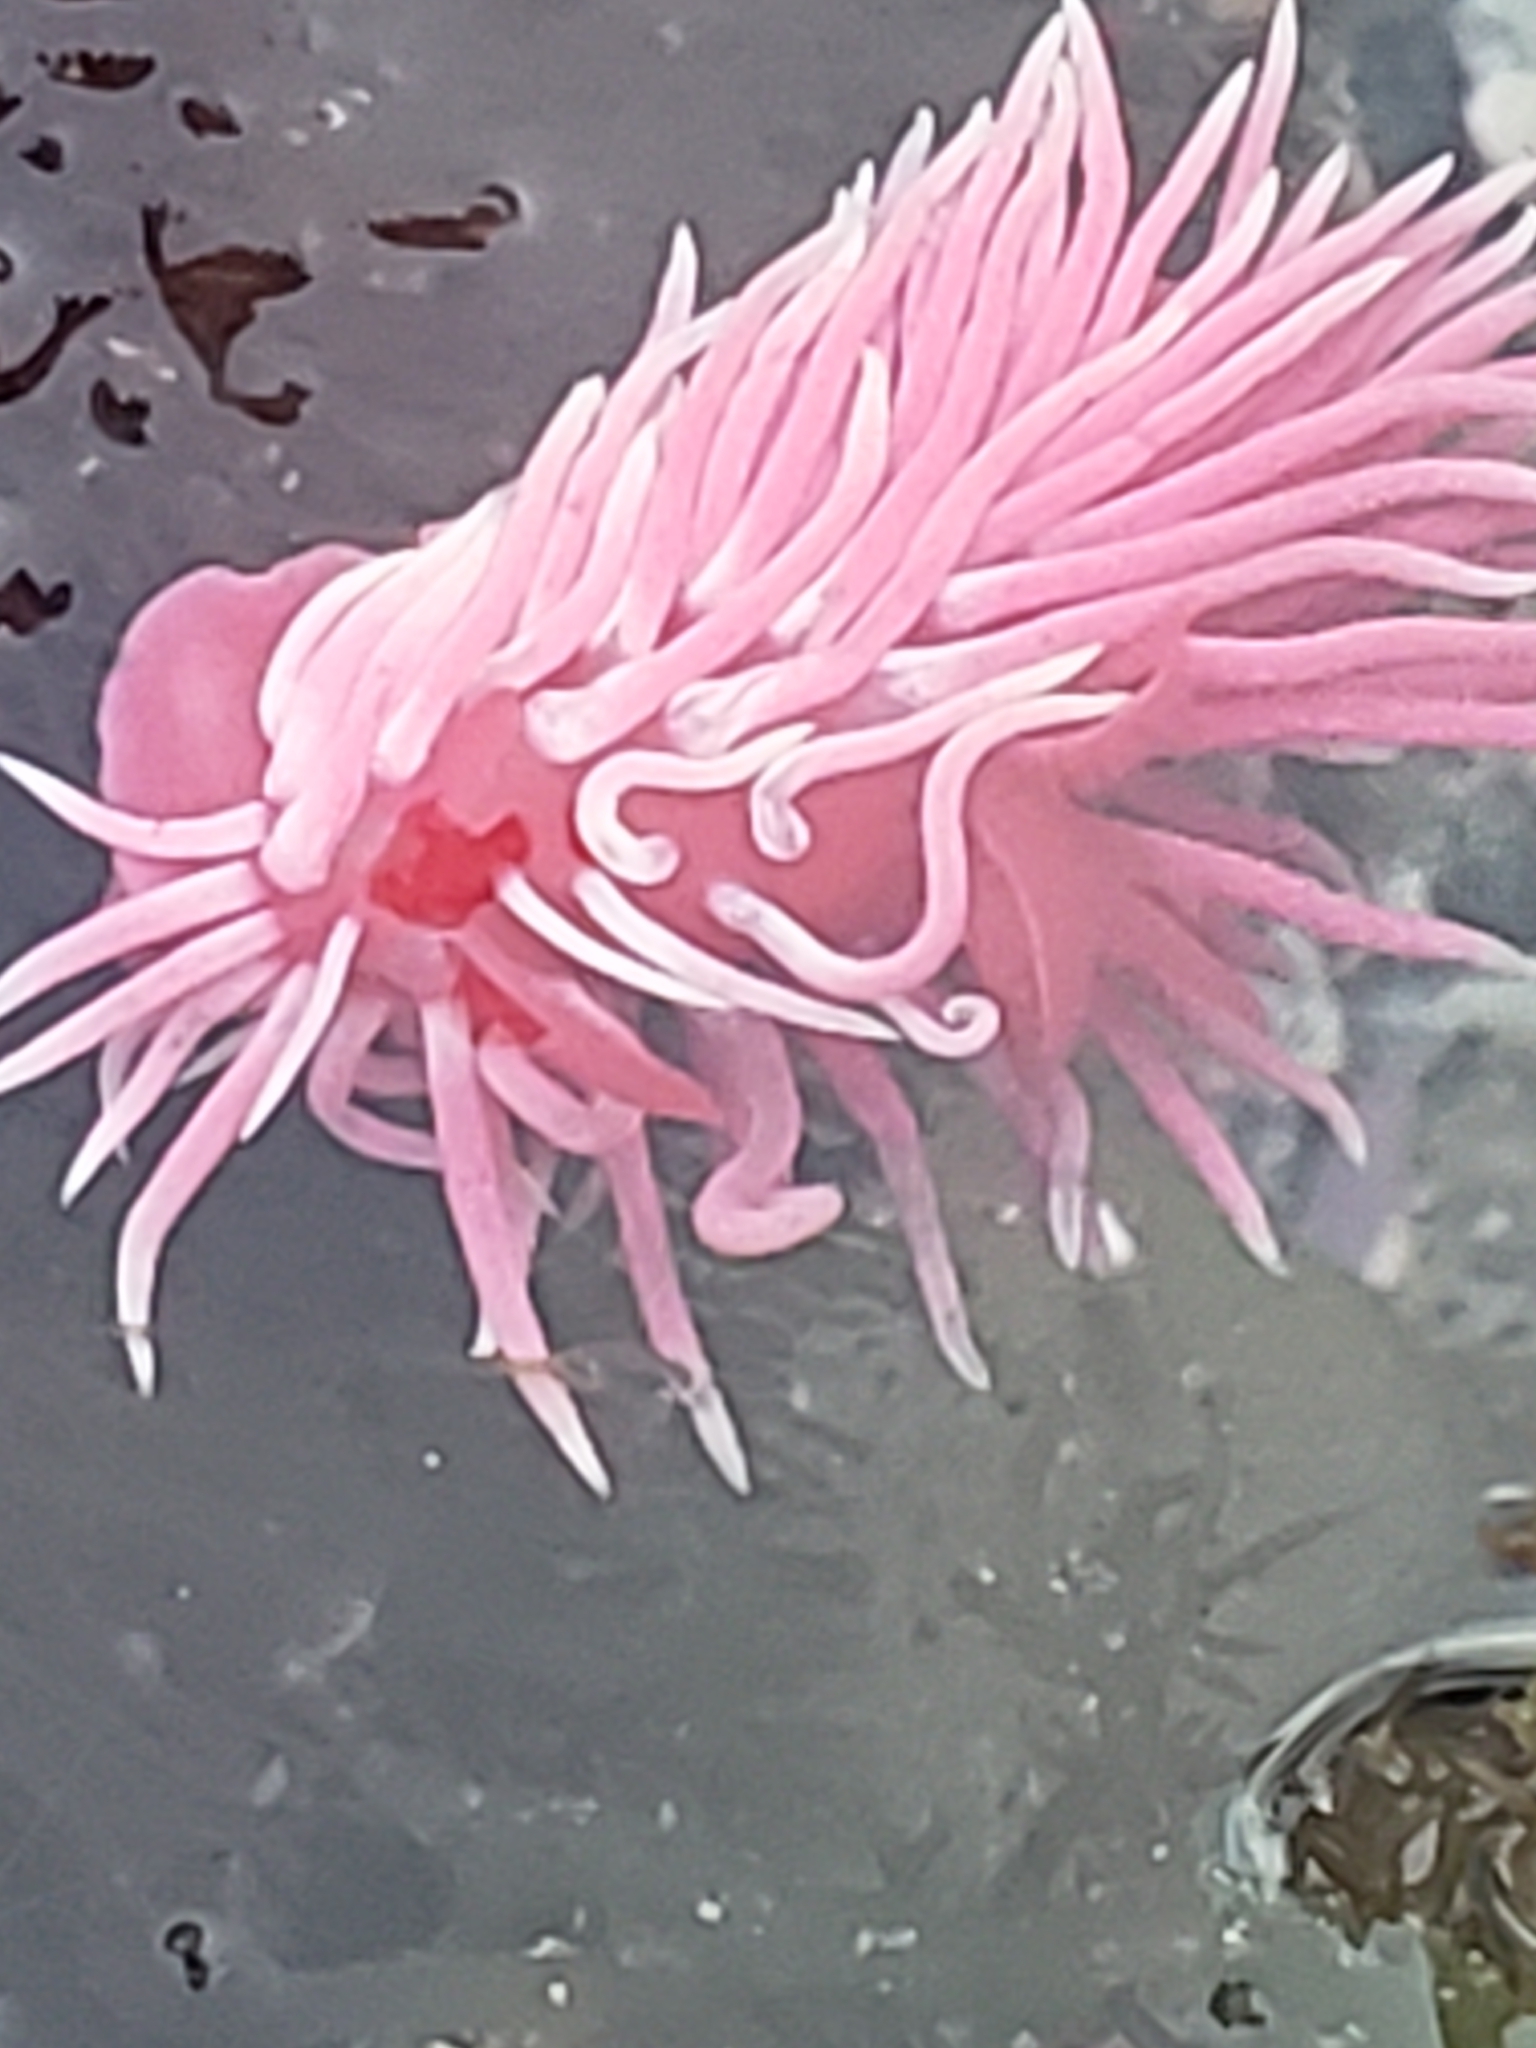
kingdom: Animalia
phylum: Mollusca
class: Gastropoda
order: Nudibranchia
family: Goniodorididae
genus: Okenia
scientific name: Okenia
